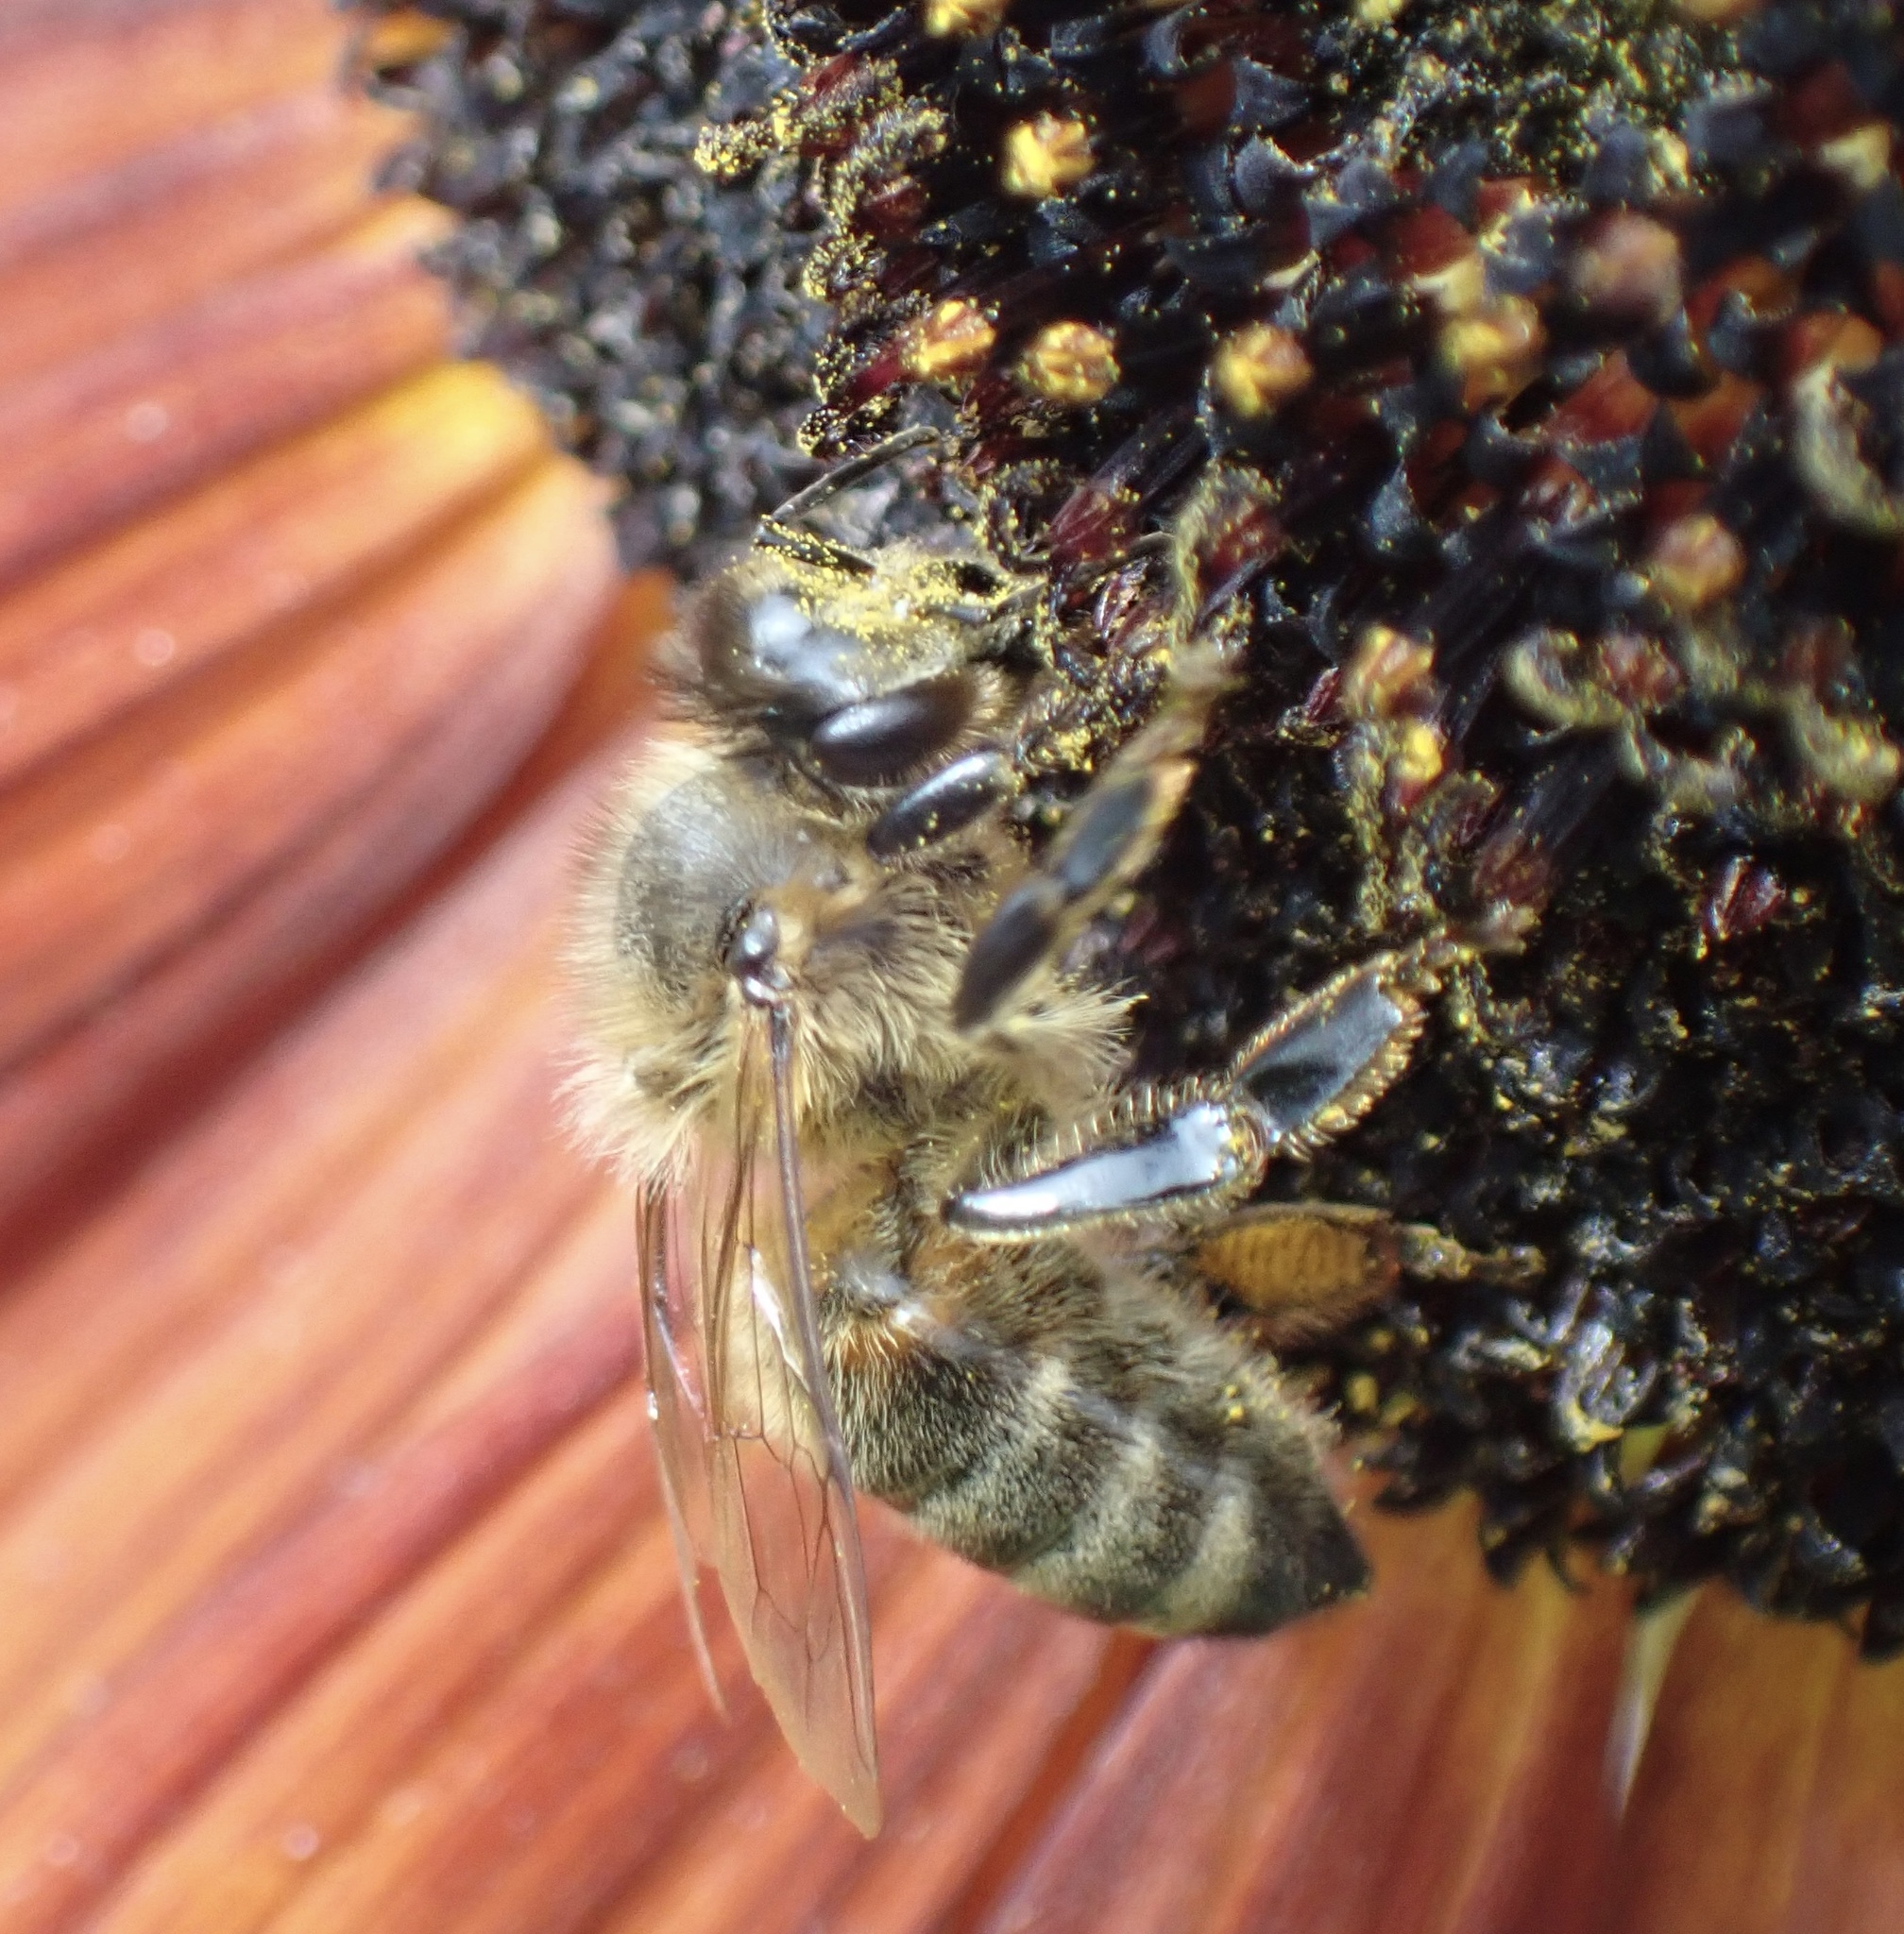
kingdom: Animalia
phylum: Arthropoda
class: Insecta
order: Hymenoptera
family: Apidae
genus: Apis
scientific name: Apis mellifera
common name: Honey bee
